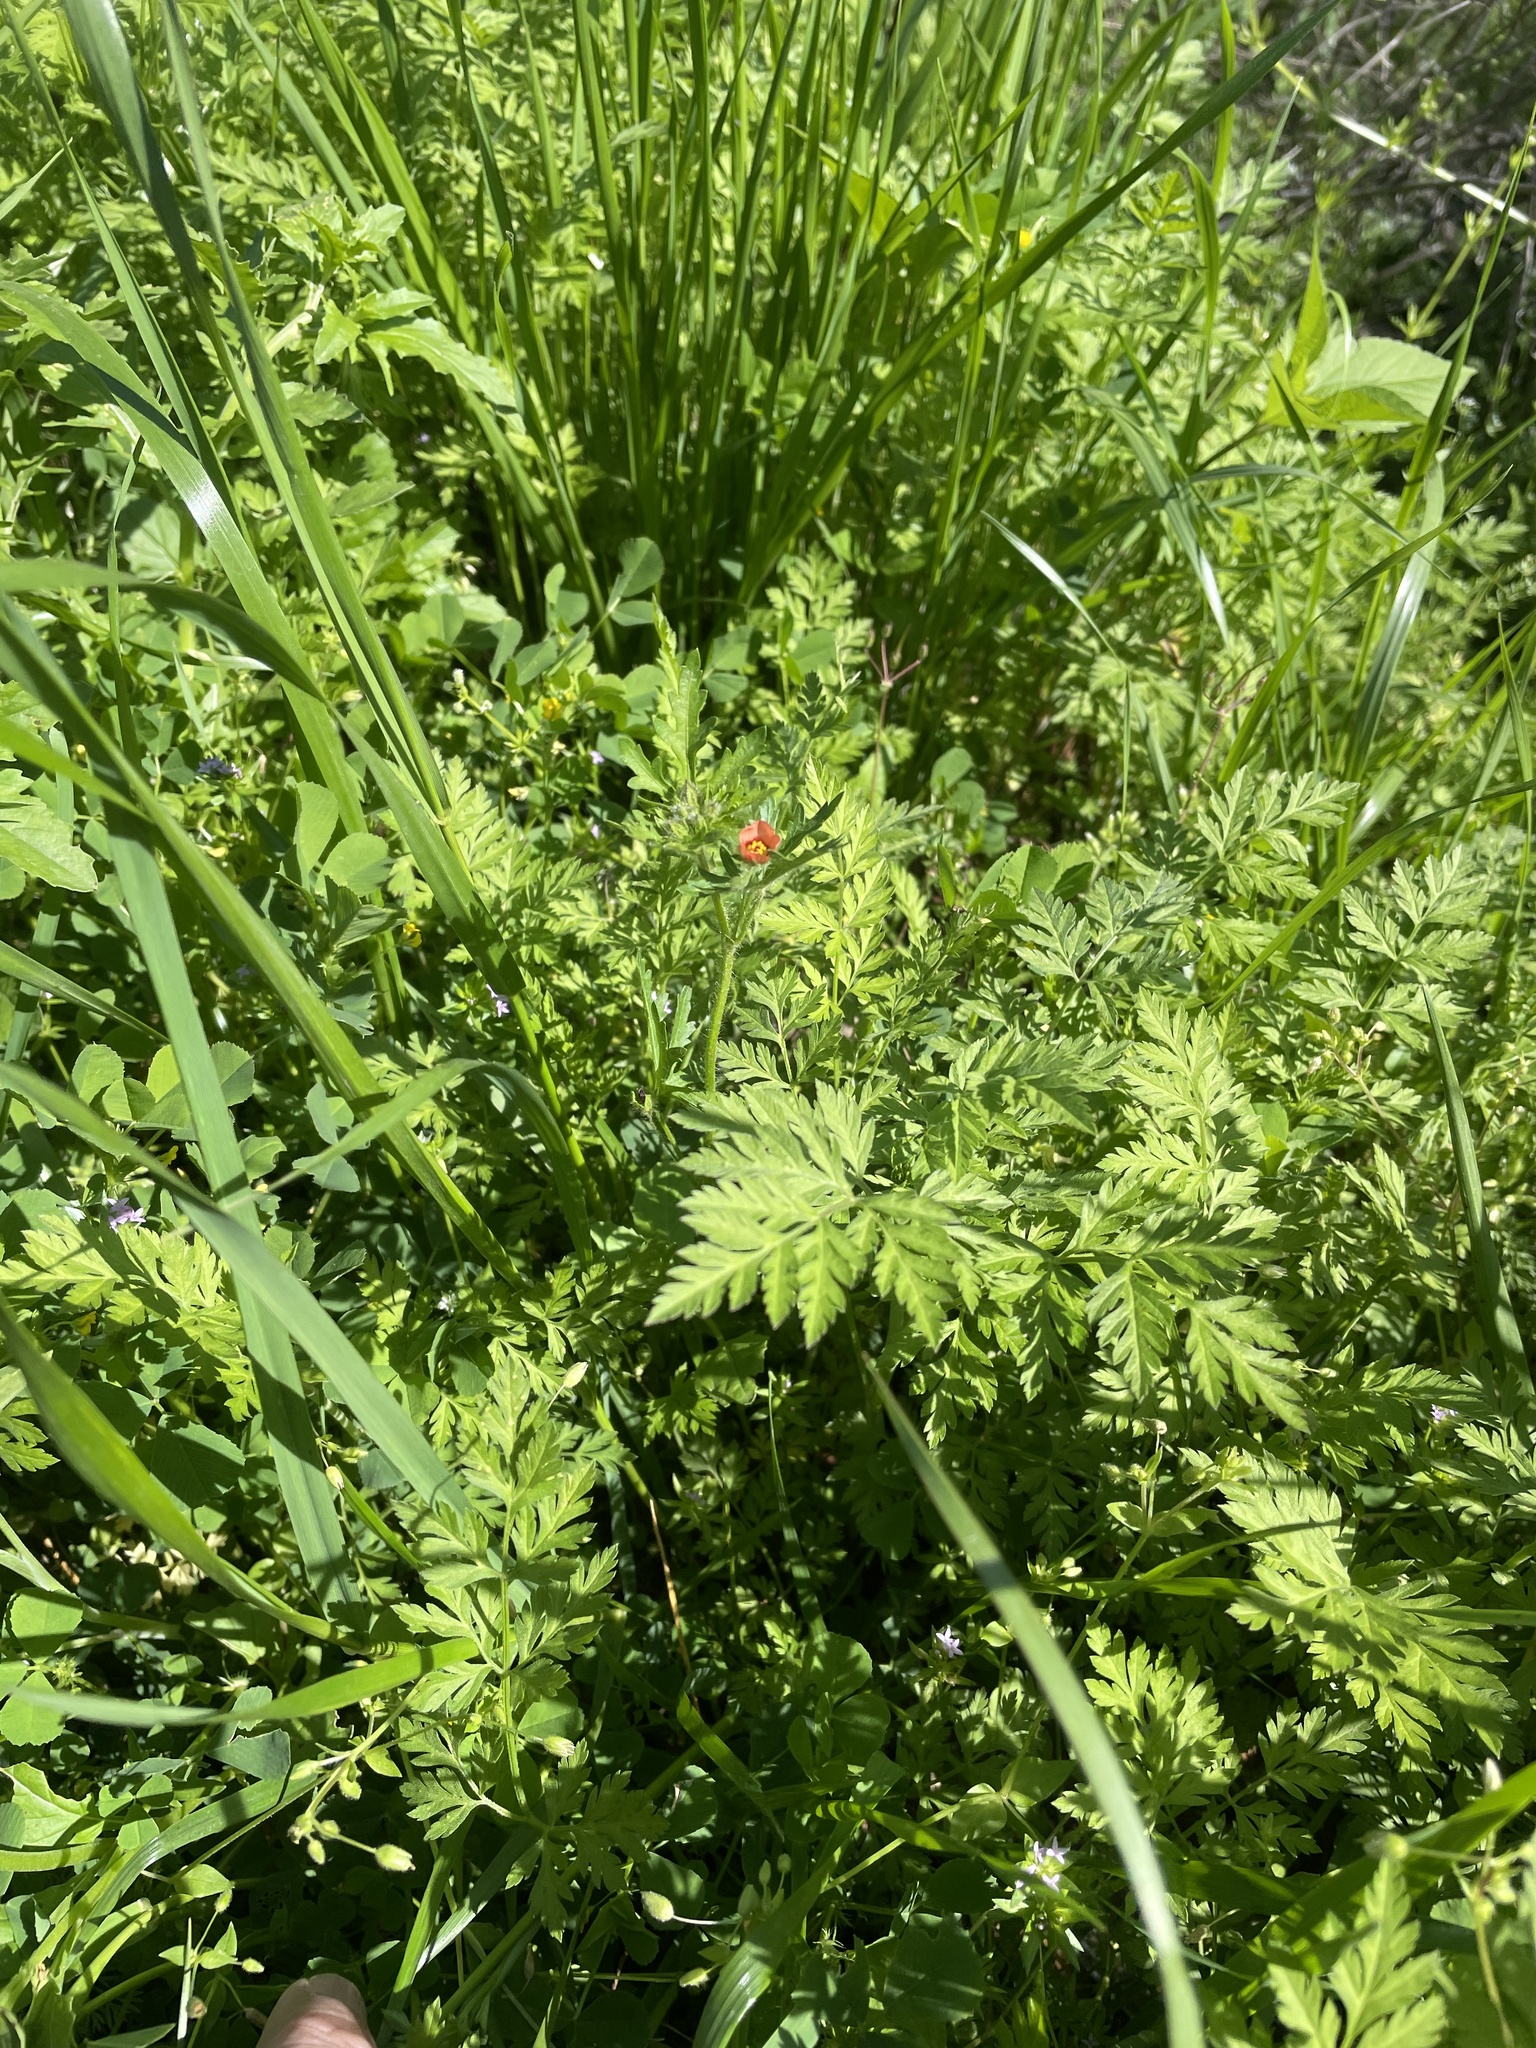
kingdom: Plantae
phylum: Tracheophyta
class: Magnoliopsida
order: Malvales
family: Malvaceae
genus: Modiola
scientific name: Modiola caroliniana
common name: Carolina bristlemallow
